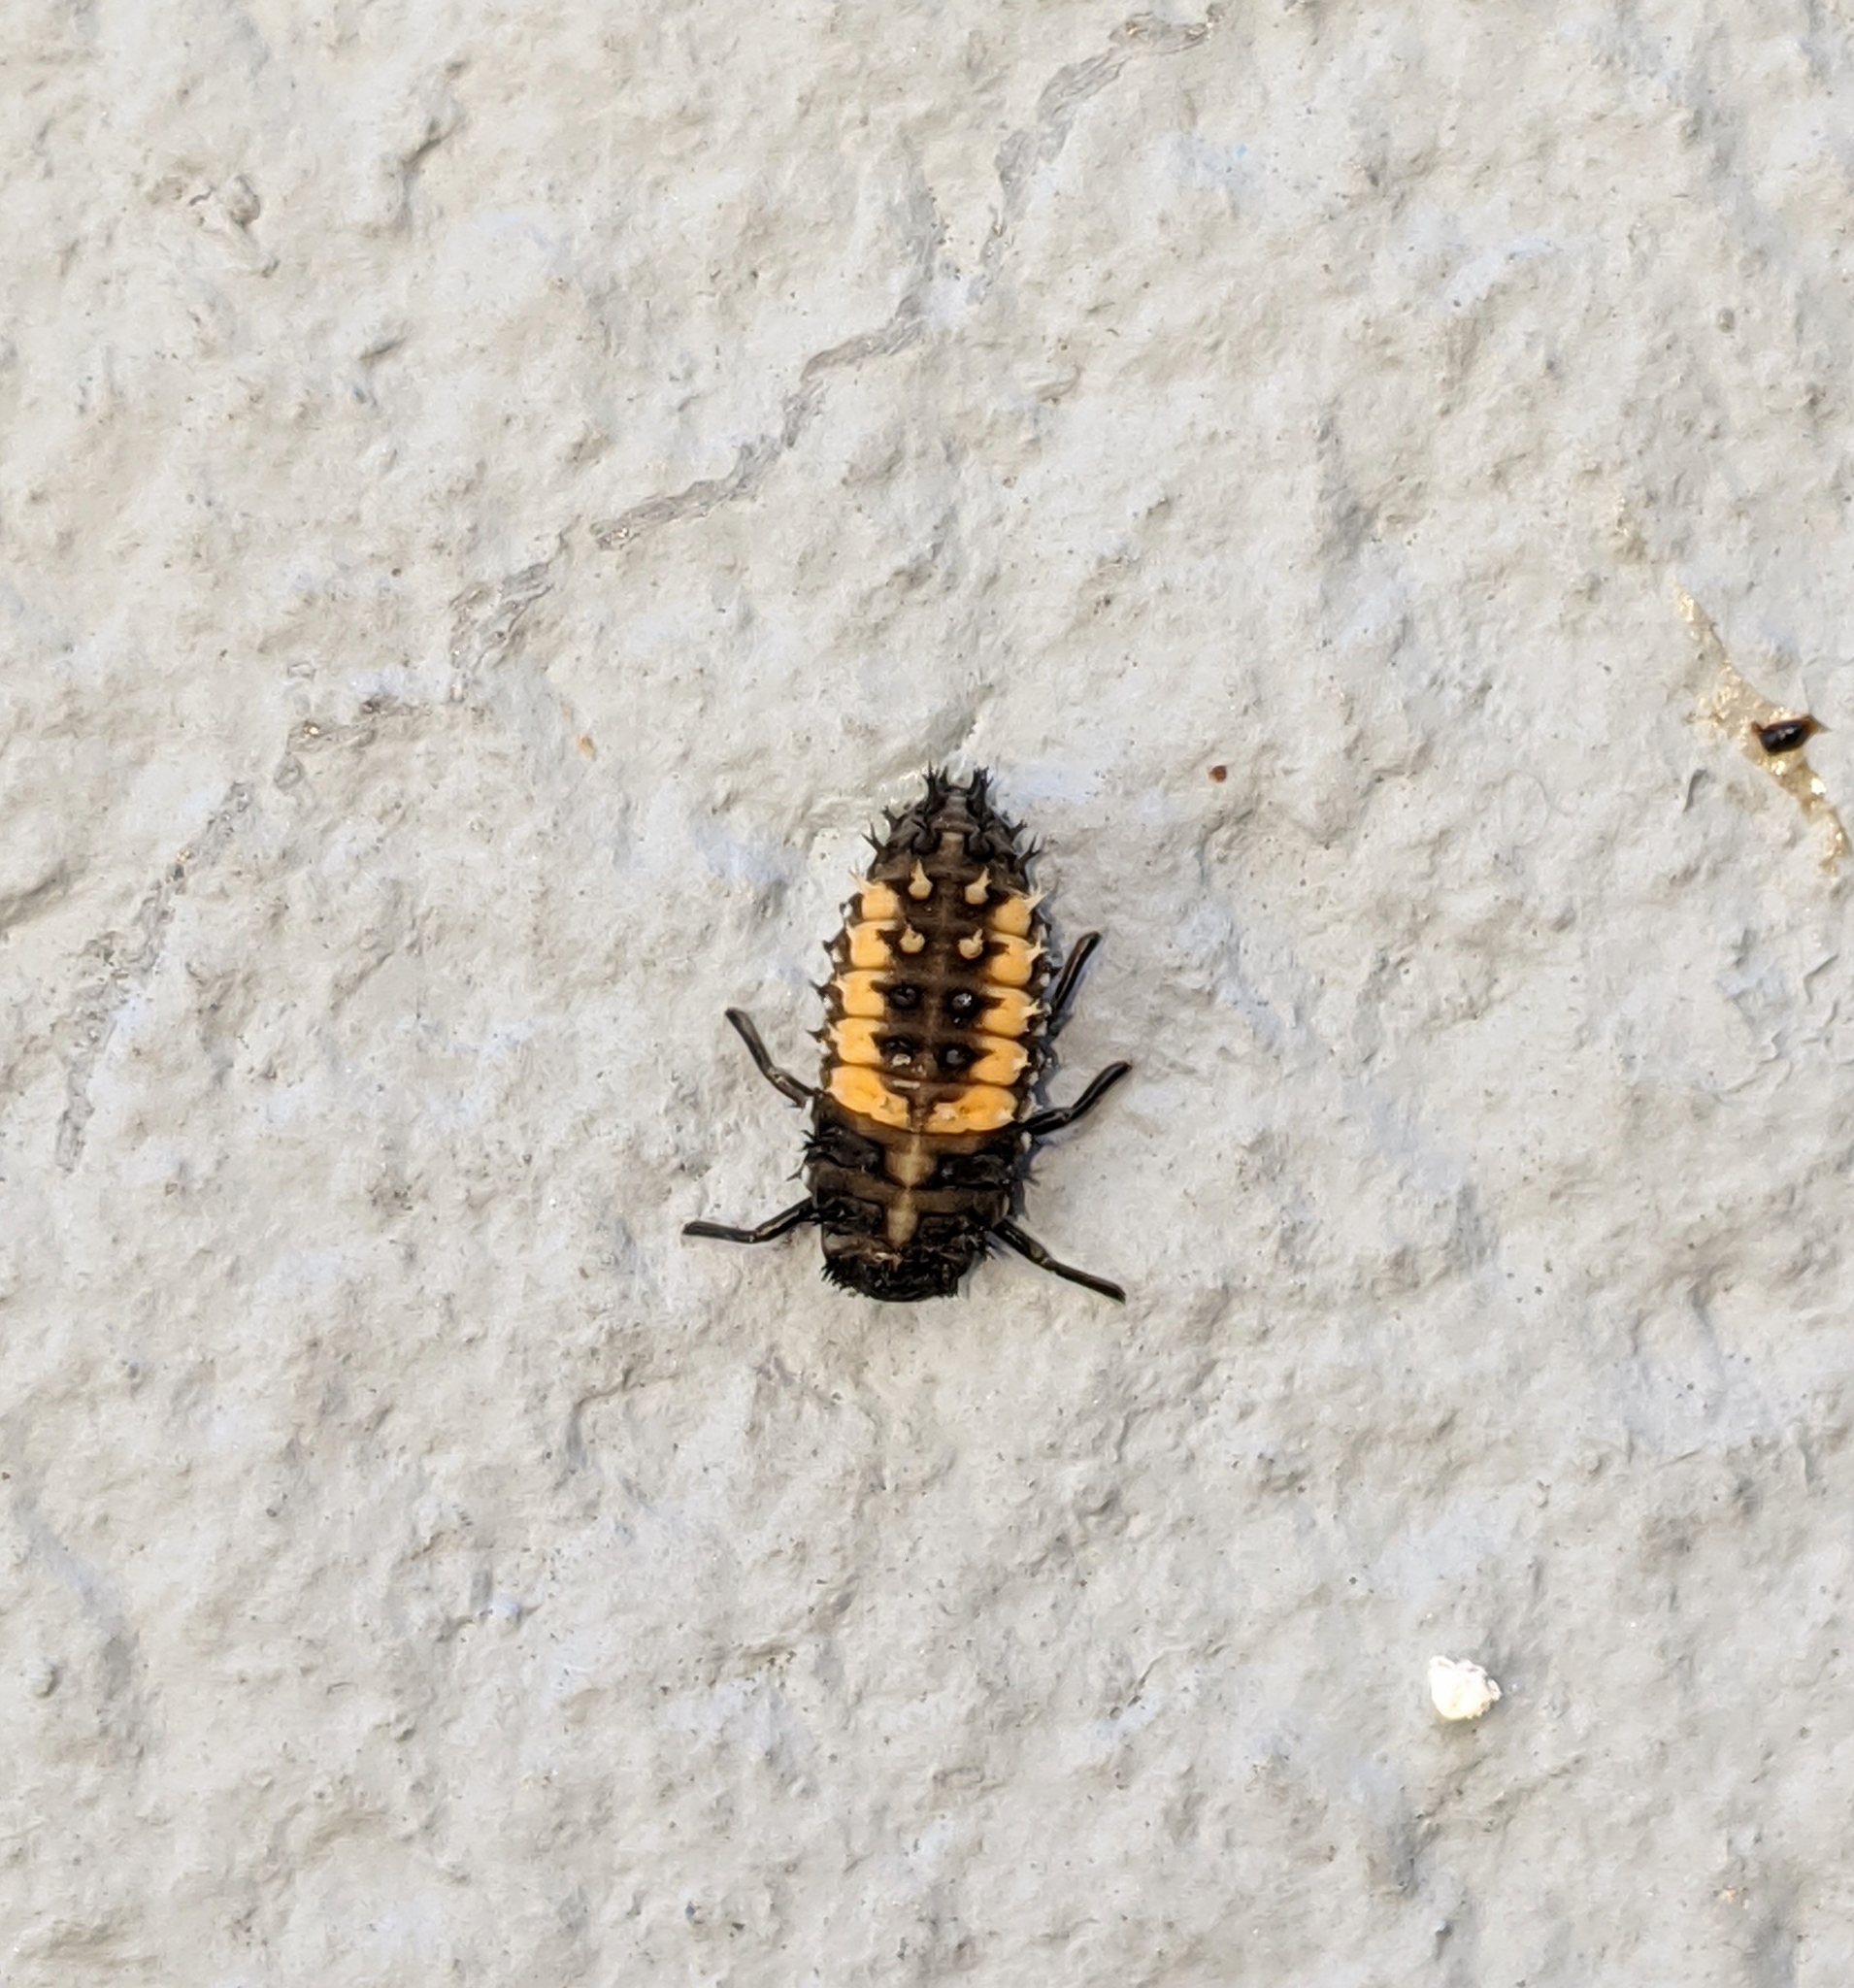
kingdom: Animalia
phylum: Arthropoda
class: Insecta
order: Coleoptera
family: Coccinellidae
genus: Harmonia
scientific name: Harmonia axyridis
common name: Harlequin ladybird
